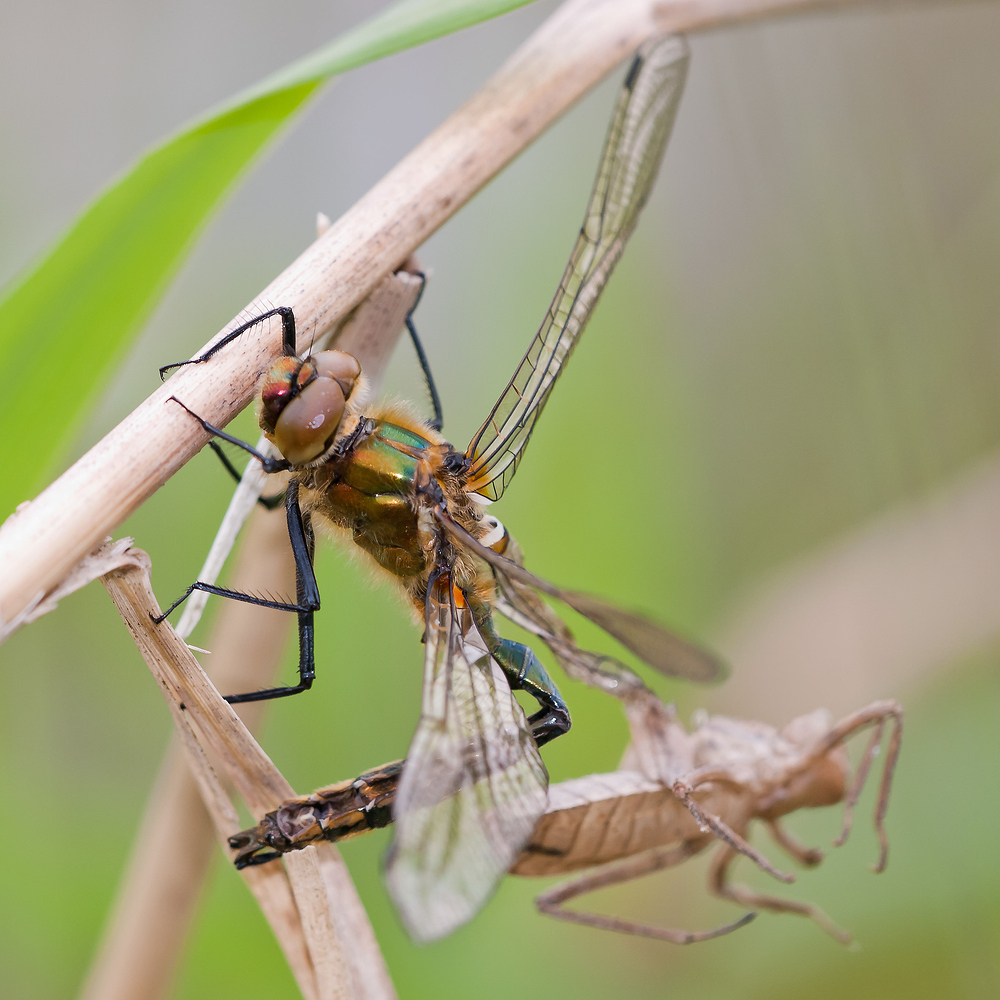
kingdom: Animalia
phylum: Arthropoda
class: Insecta
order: Odonata
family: Corduliidae
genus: Cordulia
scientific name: Cordulia aenea
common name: Downy emerald
